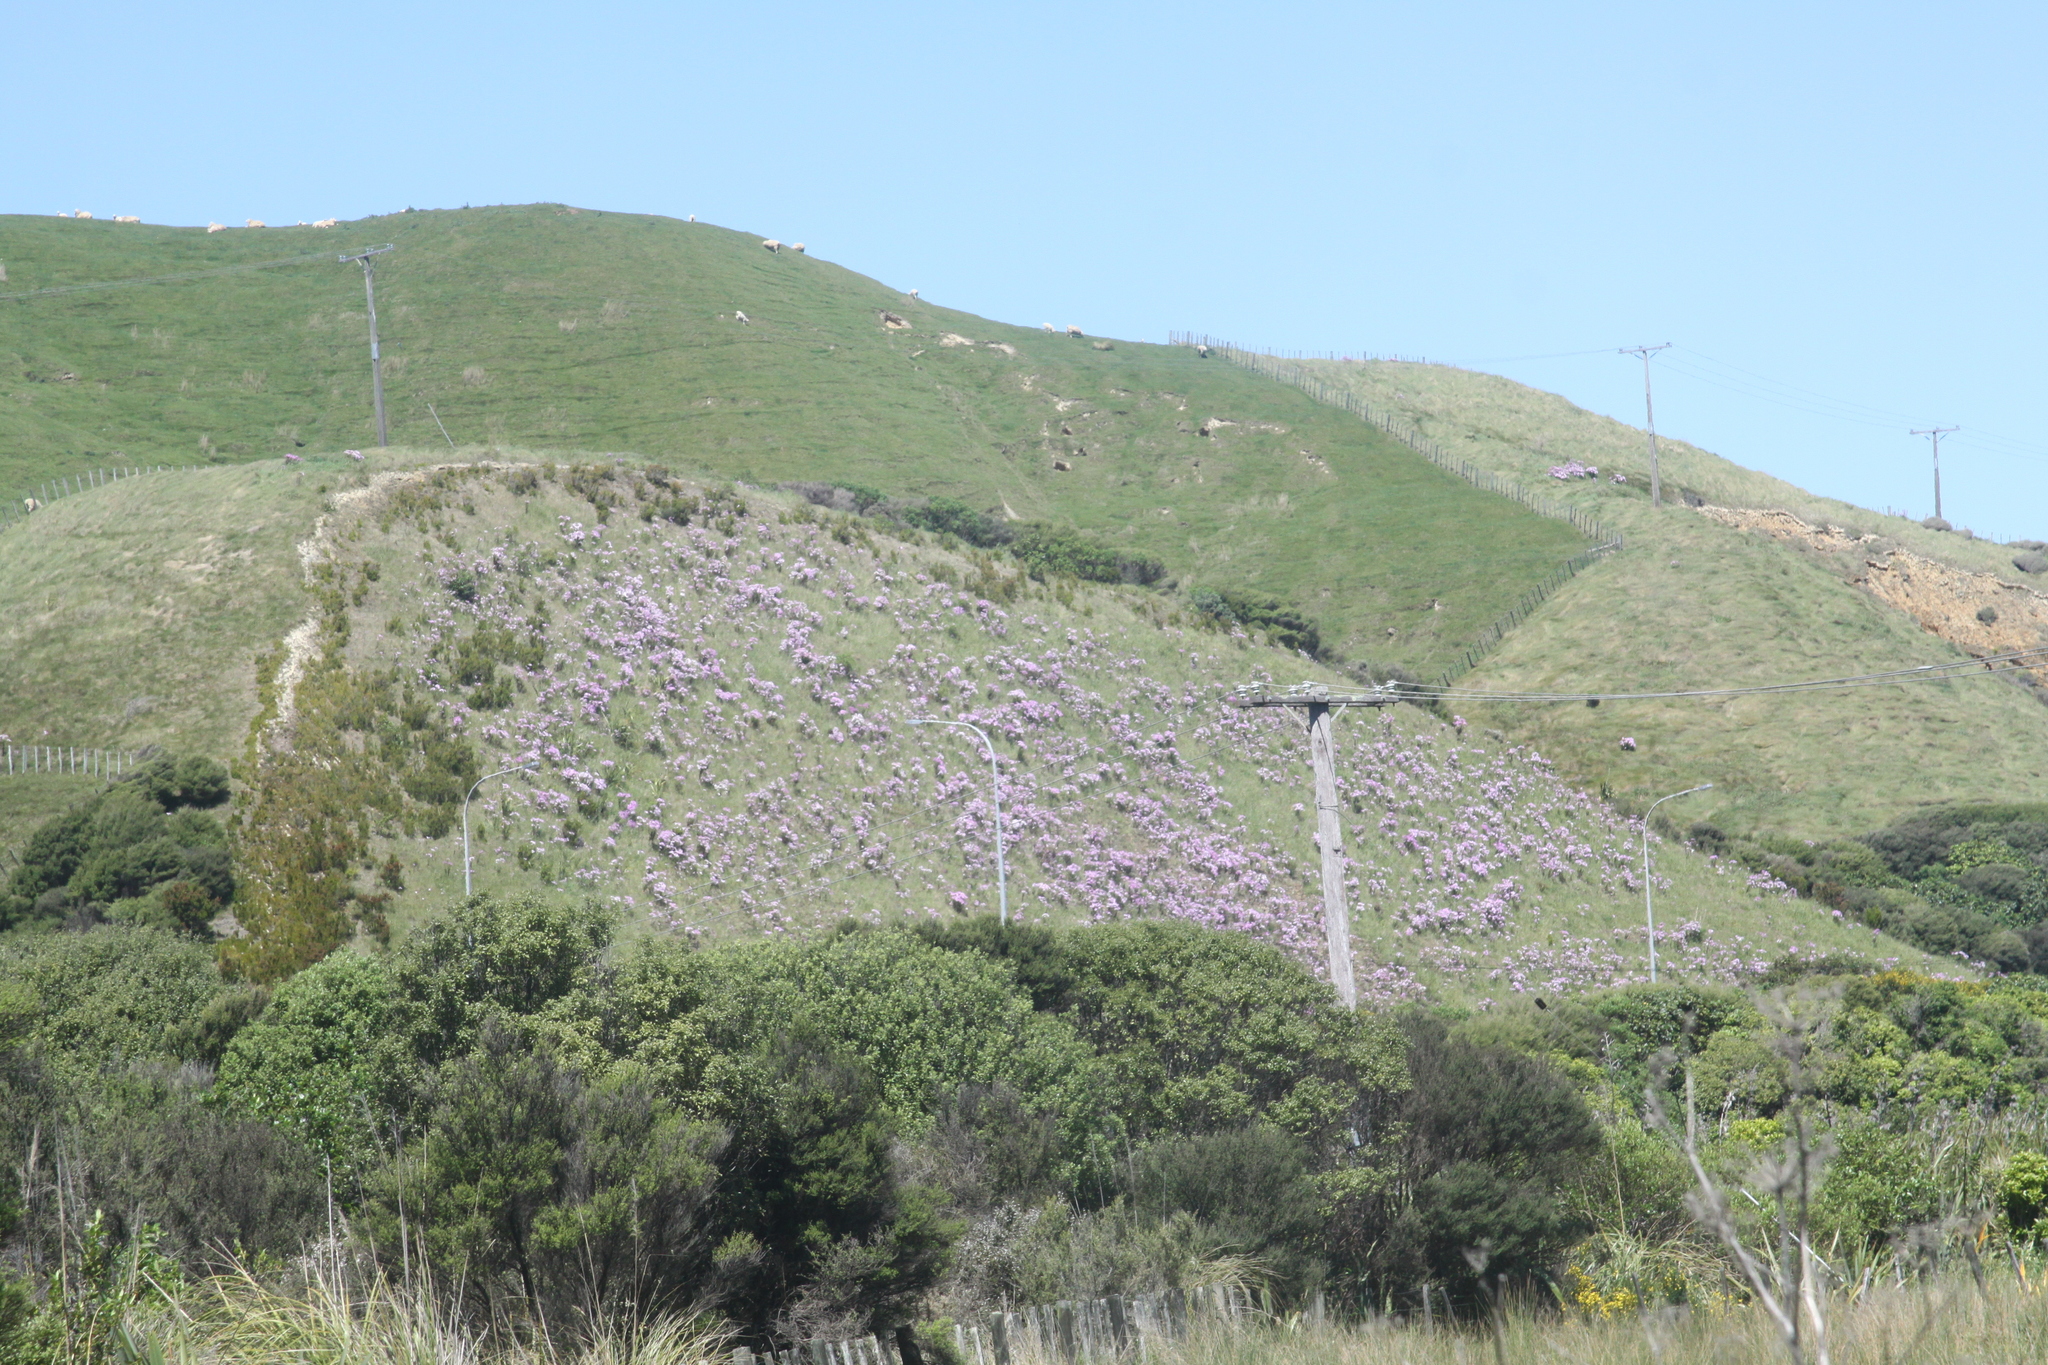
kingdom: Plantae
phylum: Tracheophyta
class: Magnoliopsida
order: Asterales
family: Asteraceae
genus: Senecio
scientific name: Senecio glastifolius
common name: Woad-leaved ragwort
